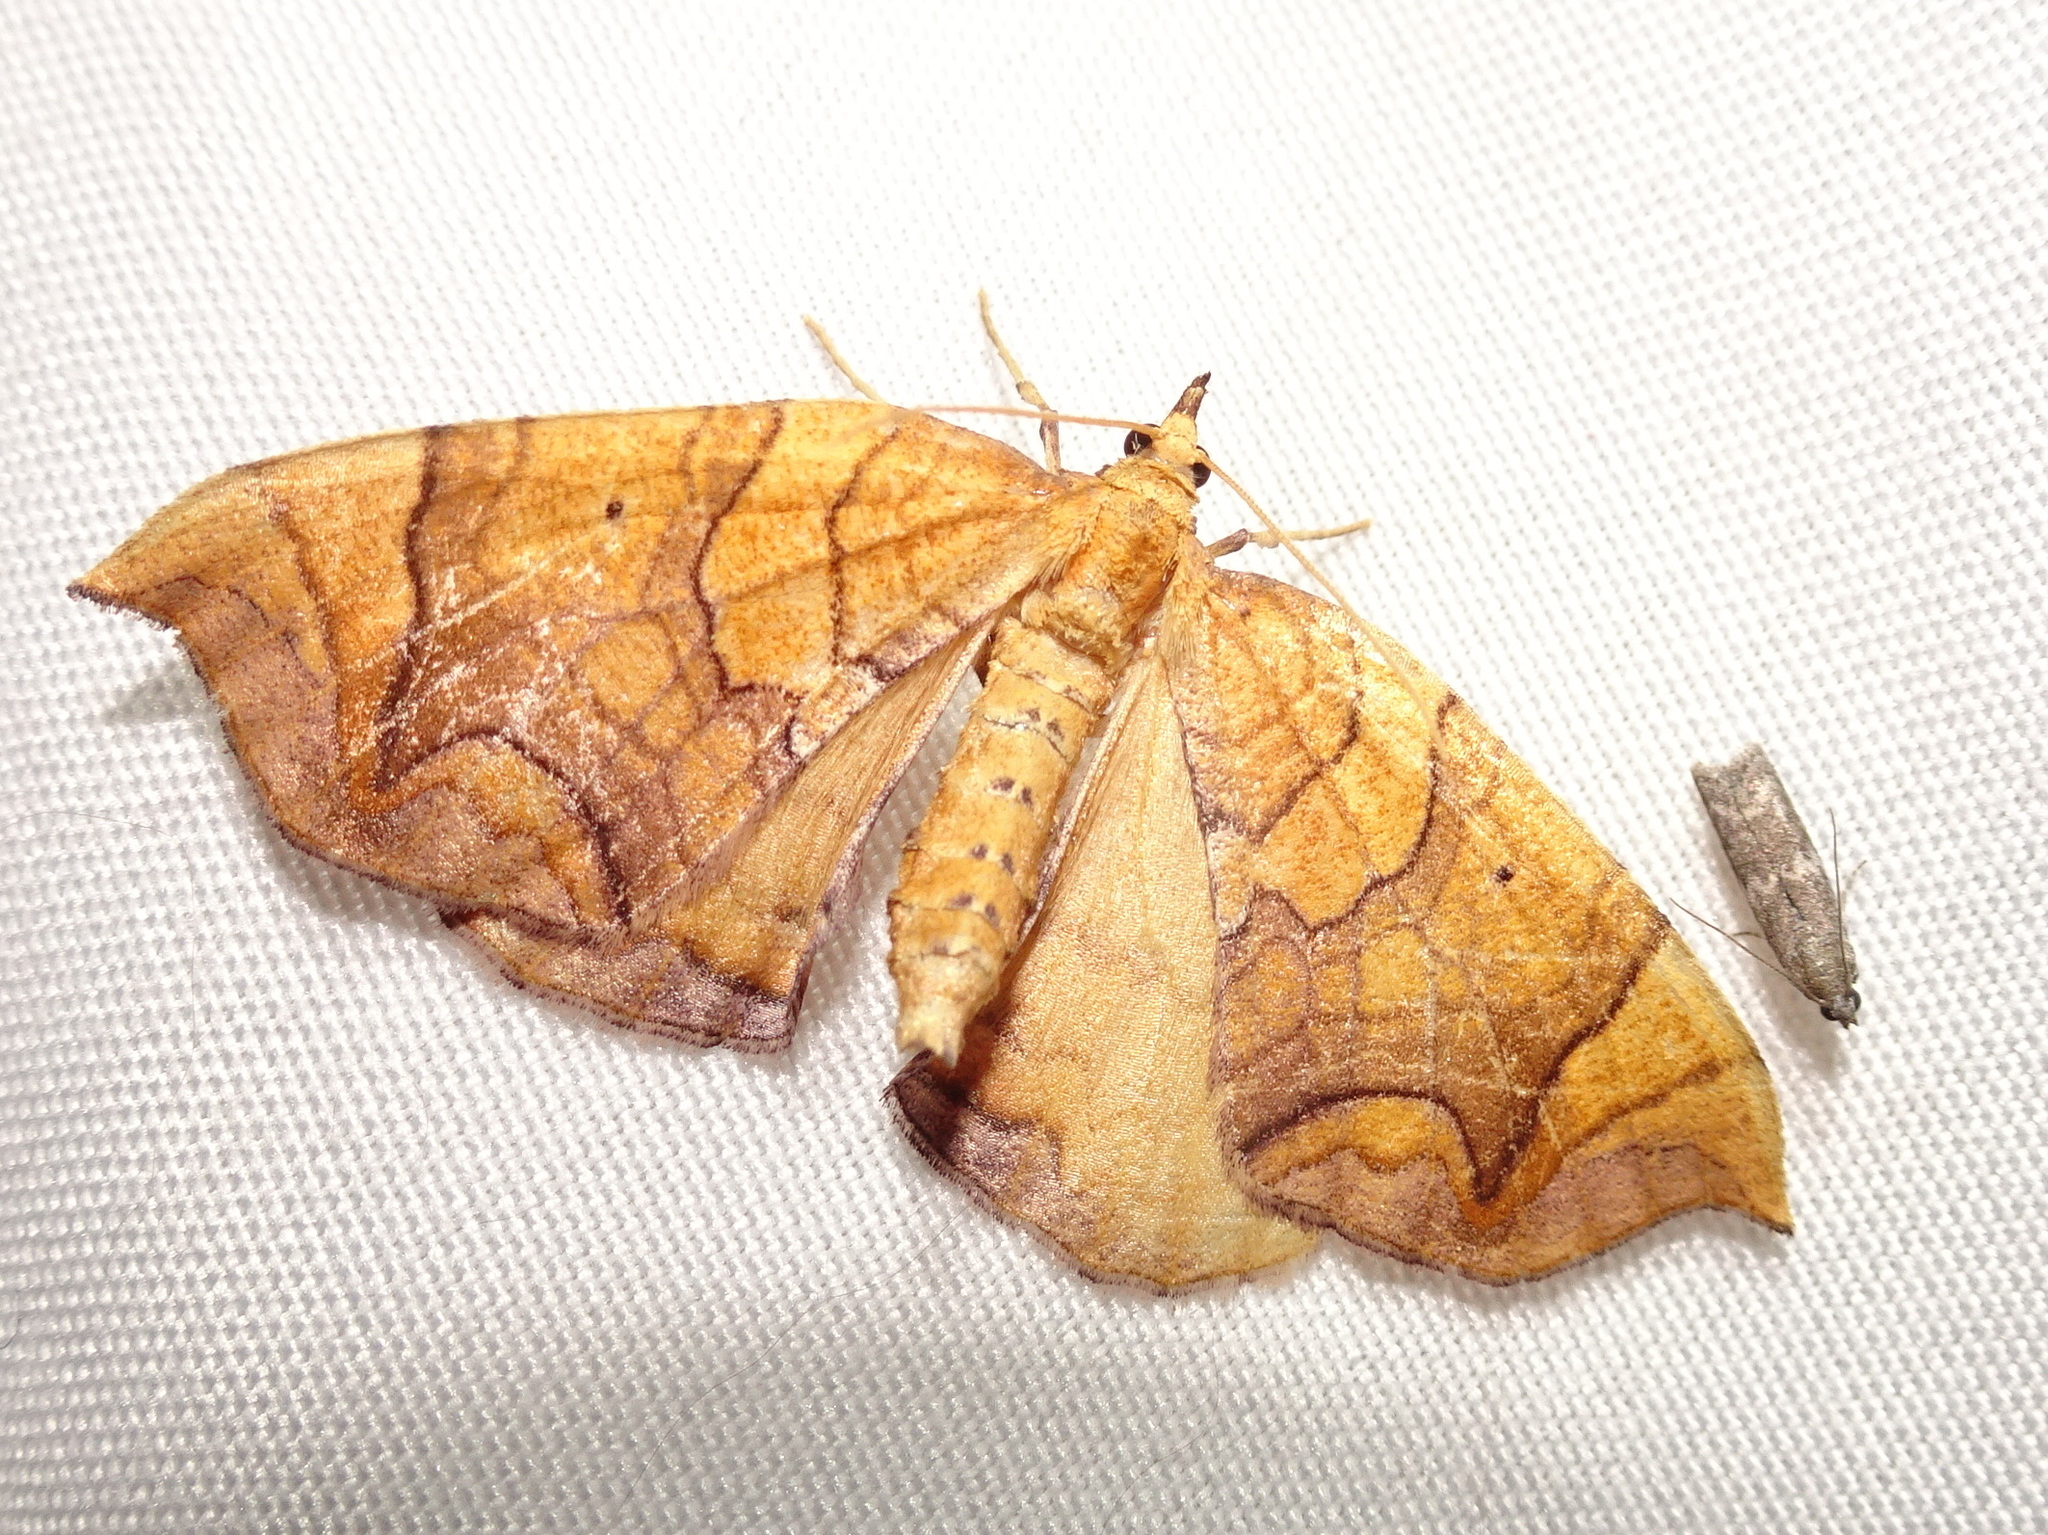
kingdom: Animalia
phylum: Arthropoda
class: Insecta
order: Lepidoptera
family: Geometridae
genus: Eulithis
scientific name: Eulithis
